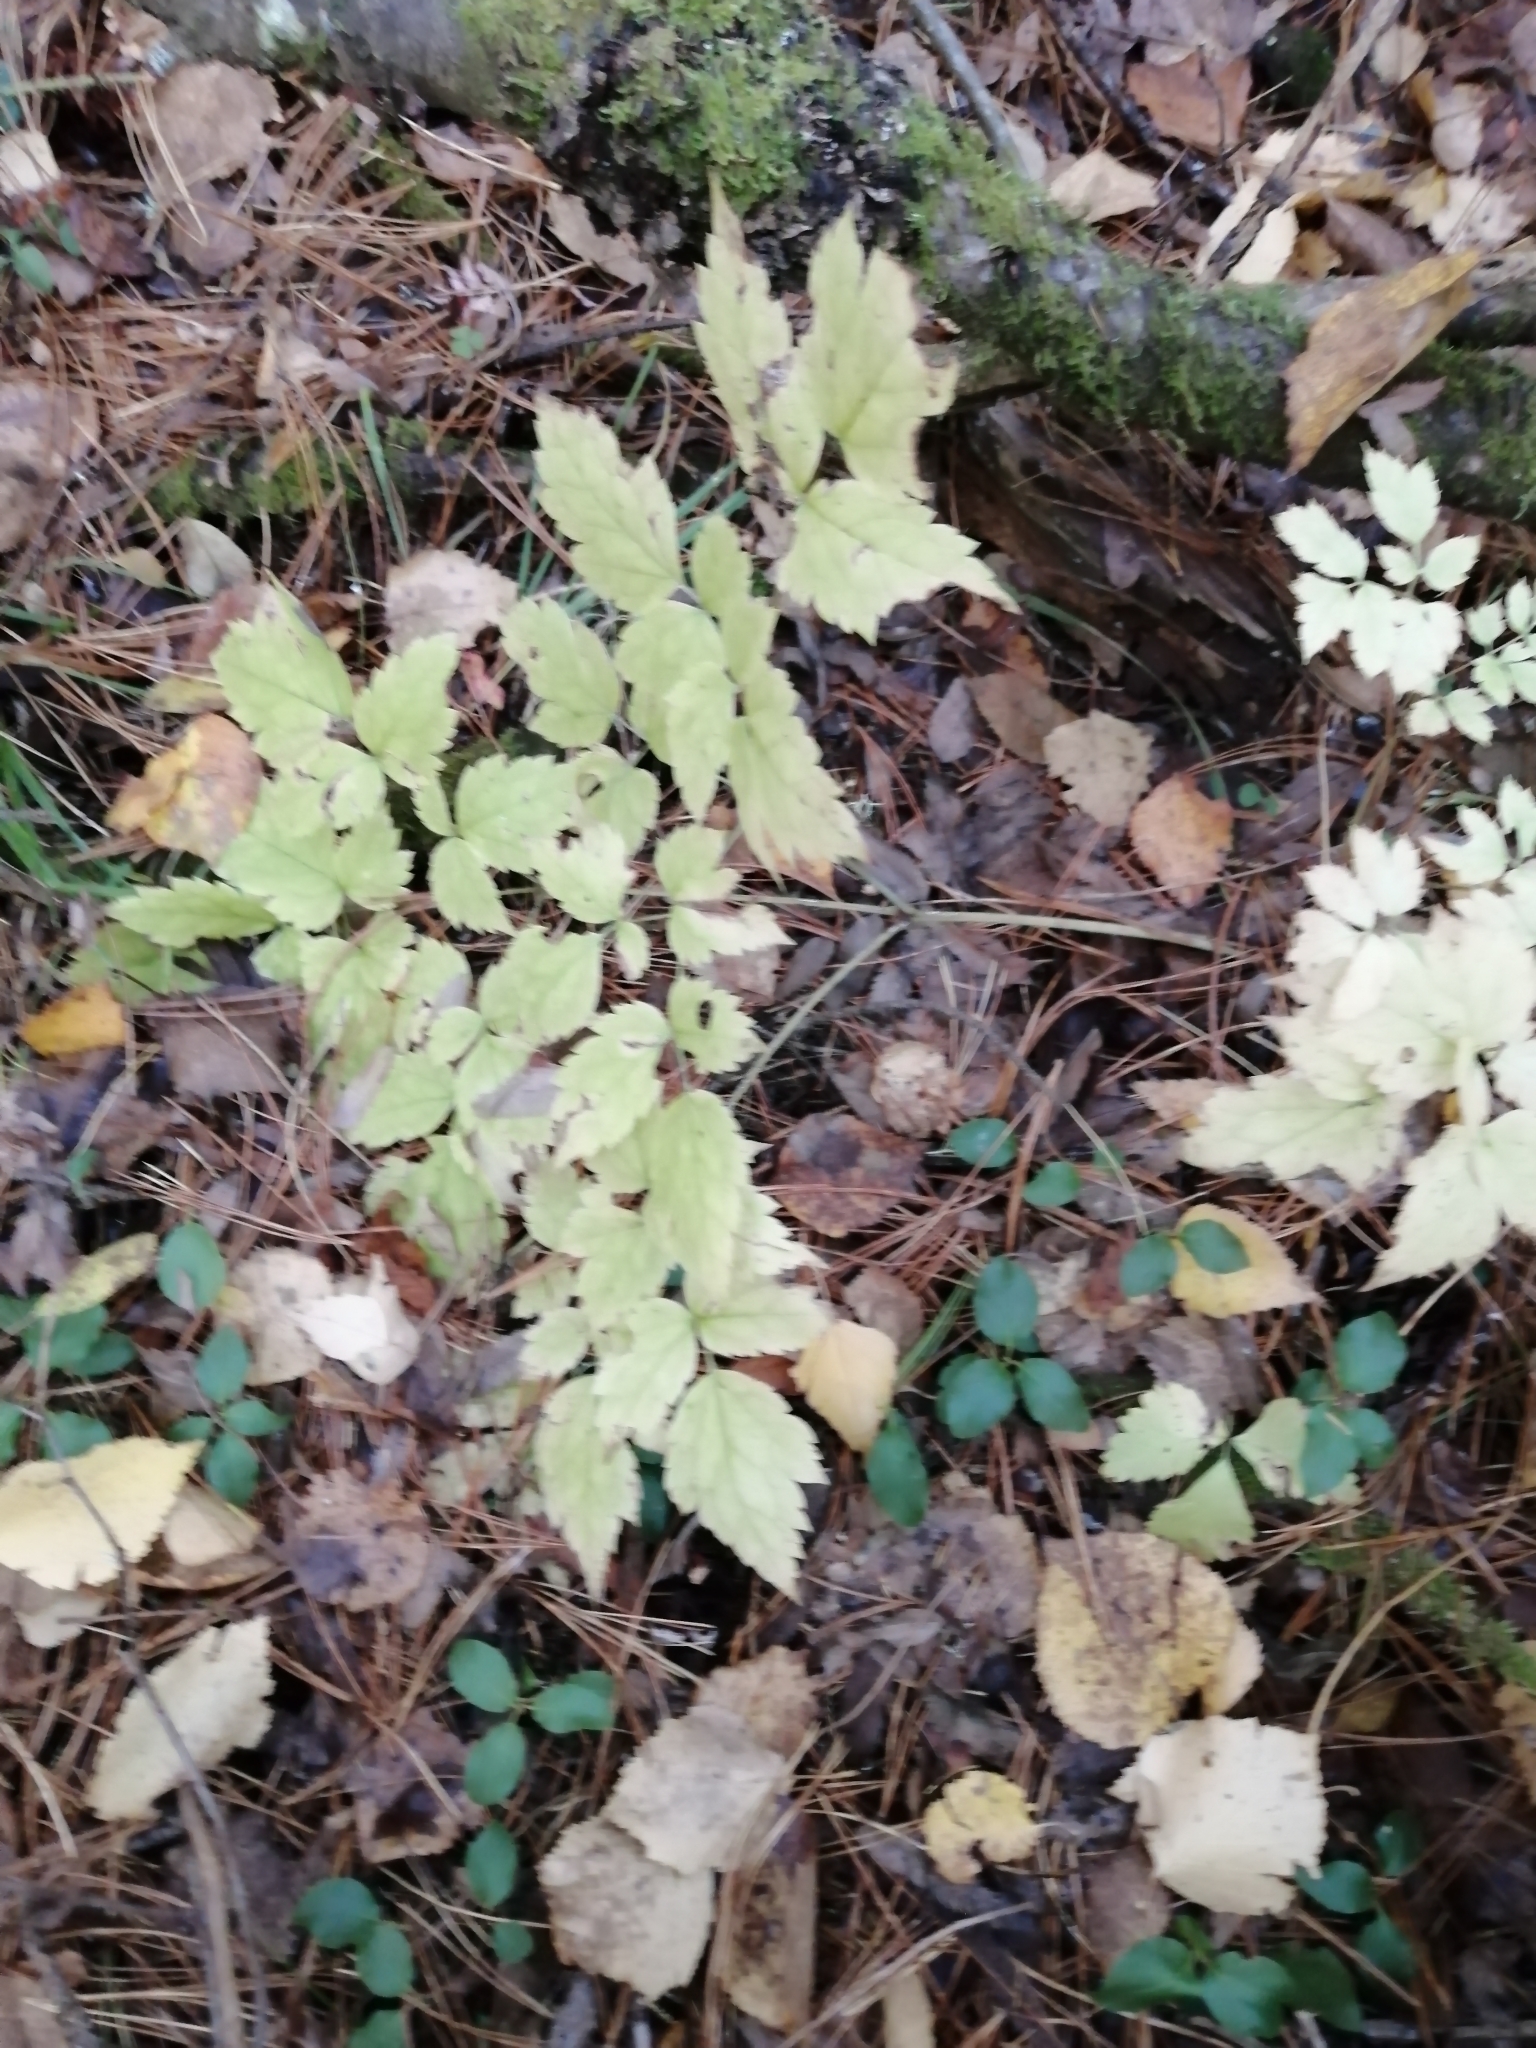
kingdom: Plantae
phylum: Tracheophyta
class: Magnoliopsida
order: Ranunculales
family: Ranunculaceae
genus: Actaea
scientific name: Actaea erythrocarpa
